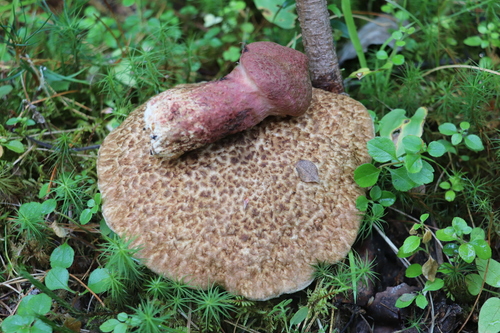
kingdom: Fungi
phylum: Basidiomycota
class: Agaricomycetes
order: Boletales
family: Suillaceae
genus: Suillus
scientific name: Suillus spraguei
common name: Painted suillus
